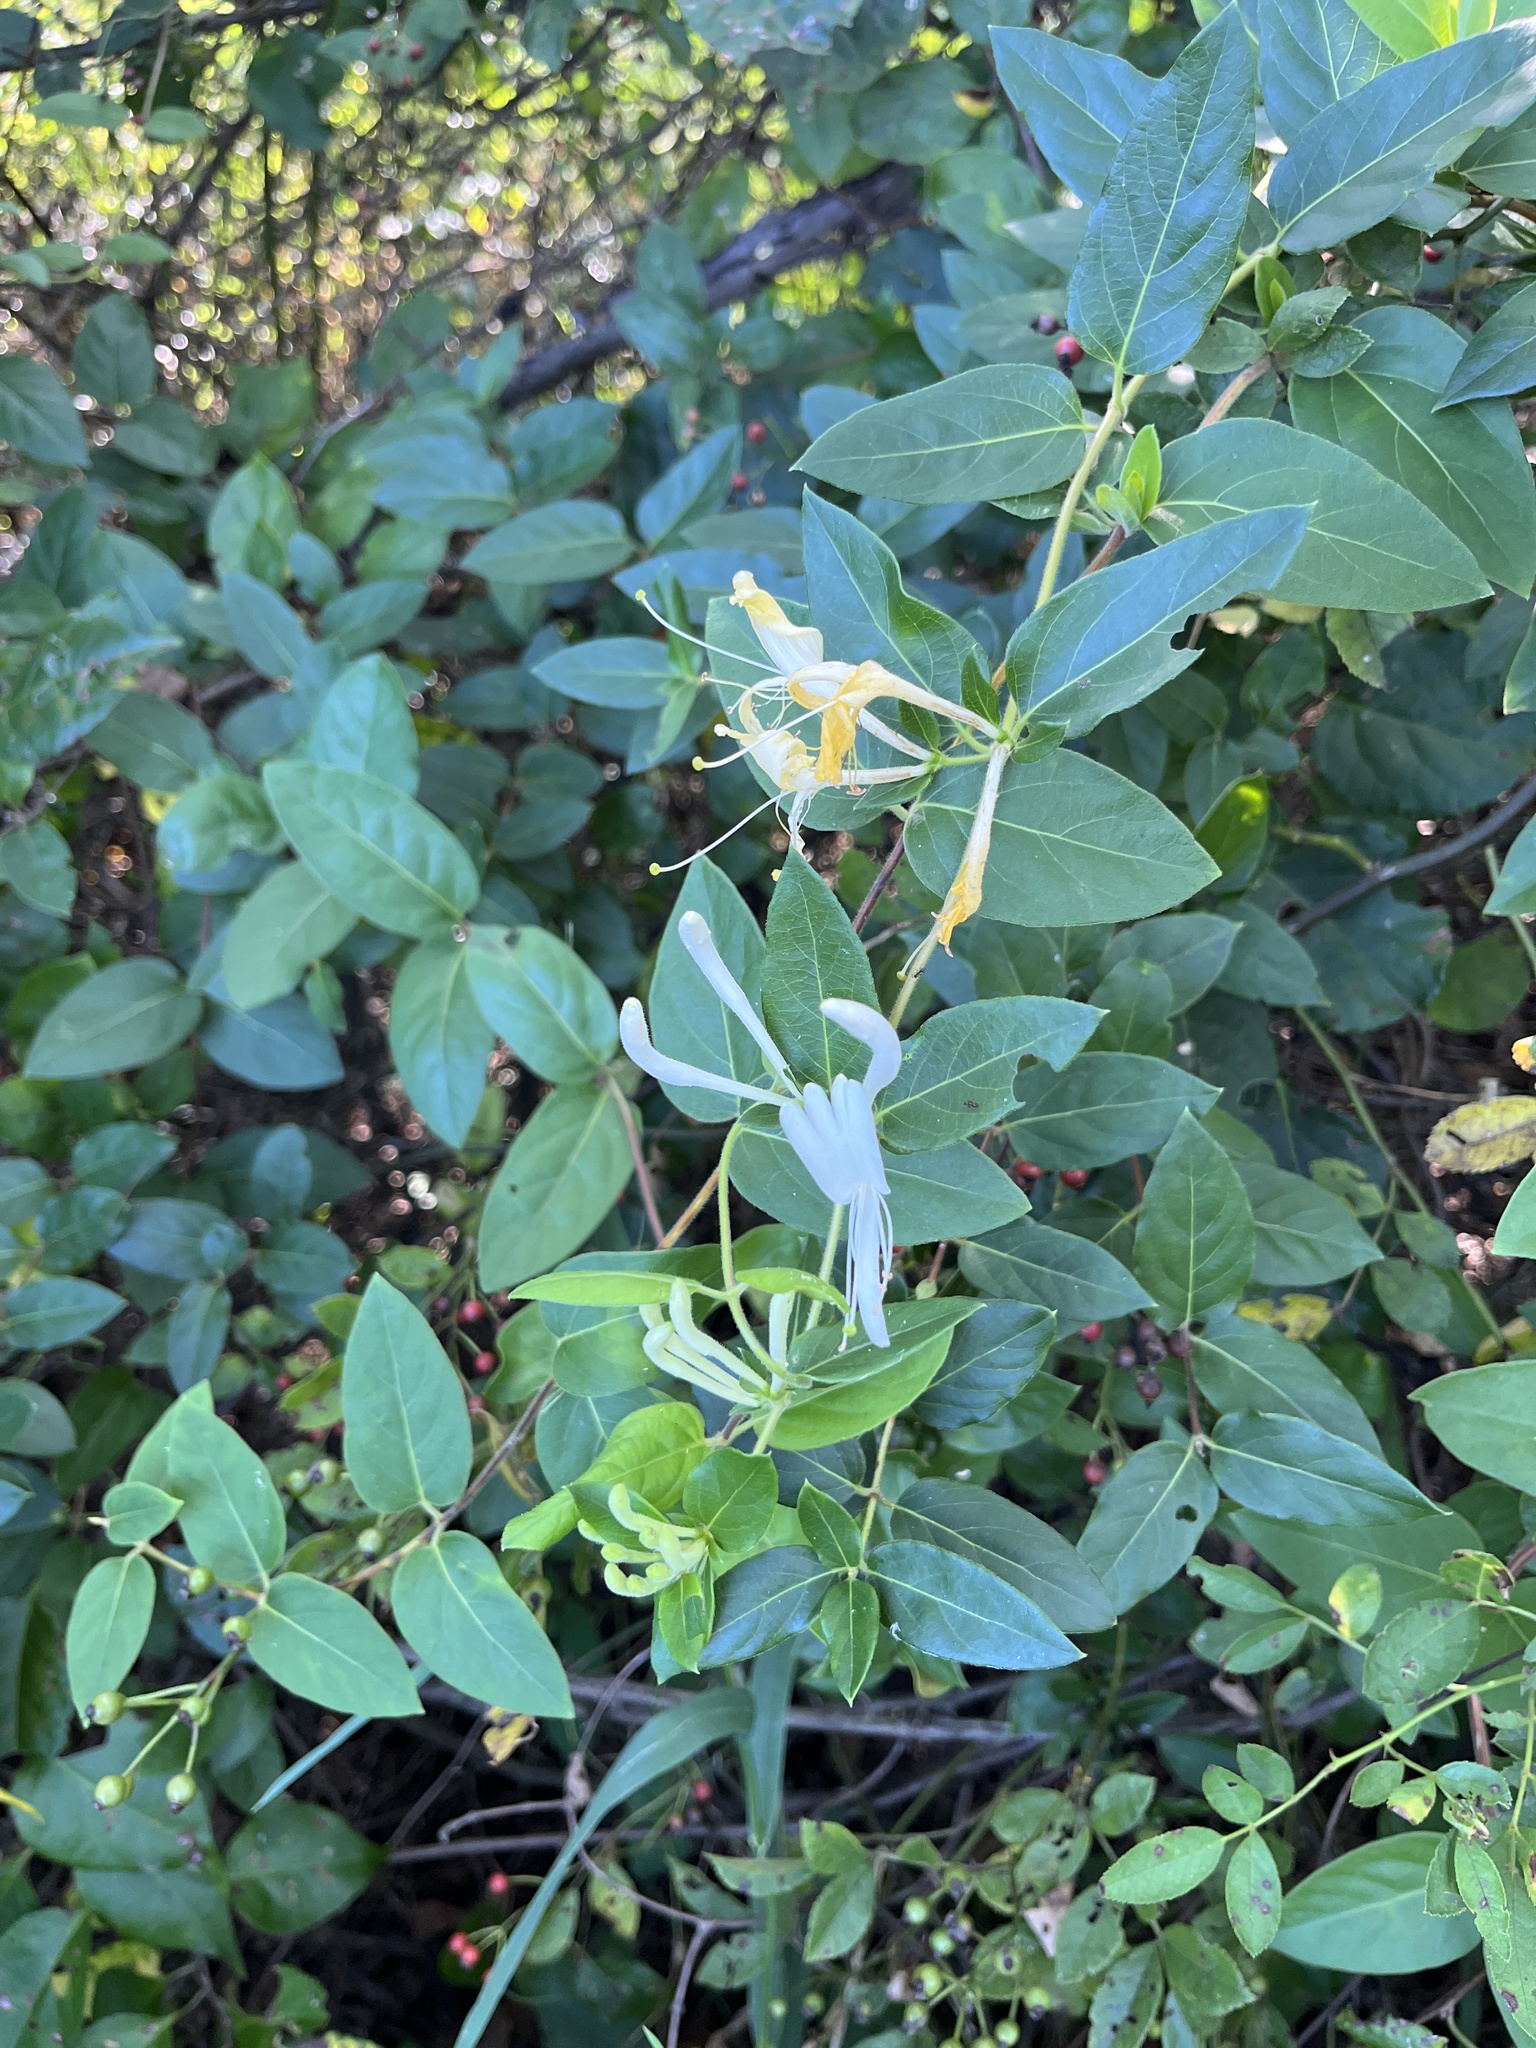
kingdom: Plantae
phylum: Tracheophyta
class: Magnoliopsida
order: Dipsacales
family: Caprifoliaceae
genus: Lonicera
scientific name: Lonicera japonica
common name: Japanese honeysuckle
